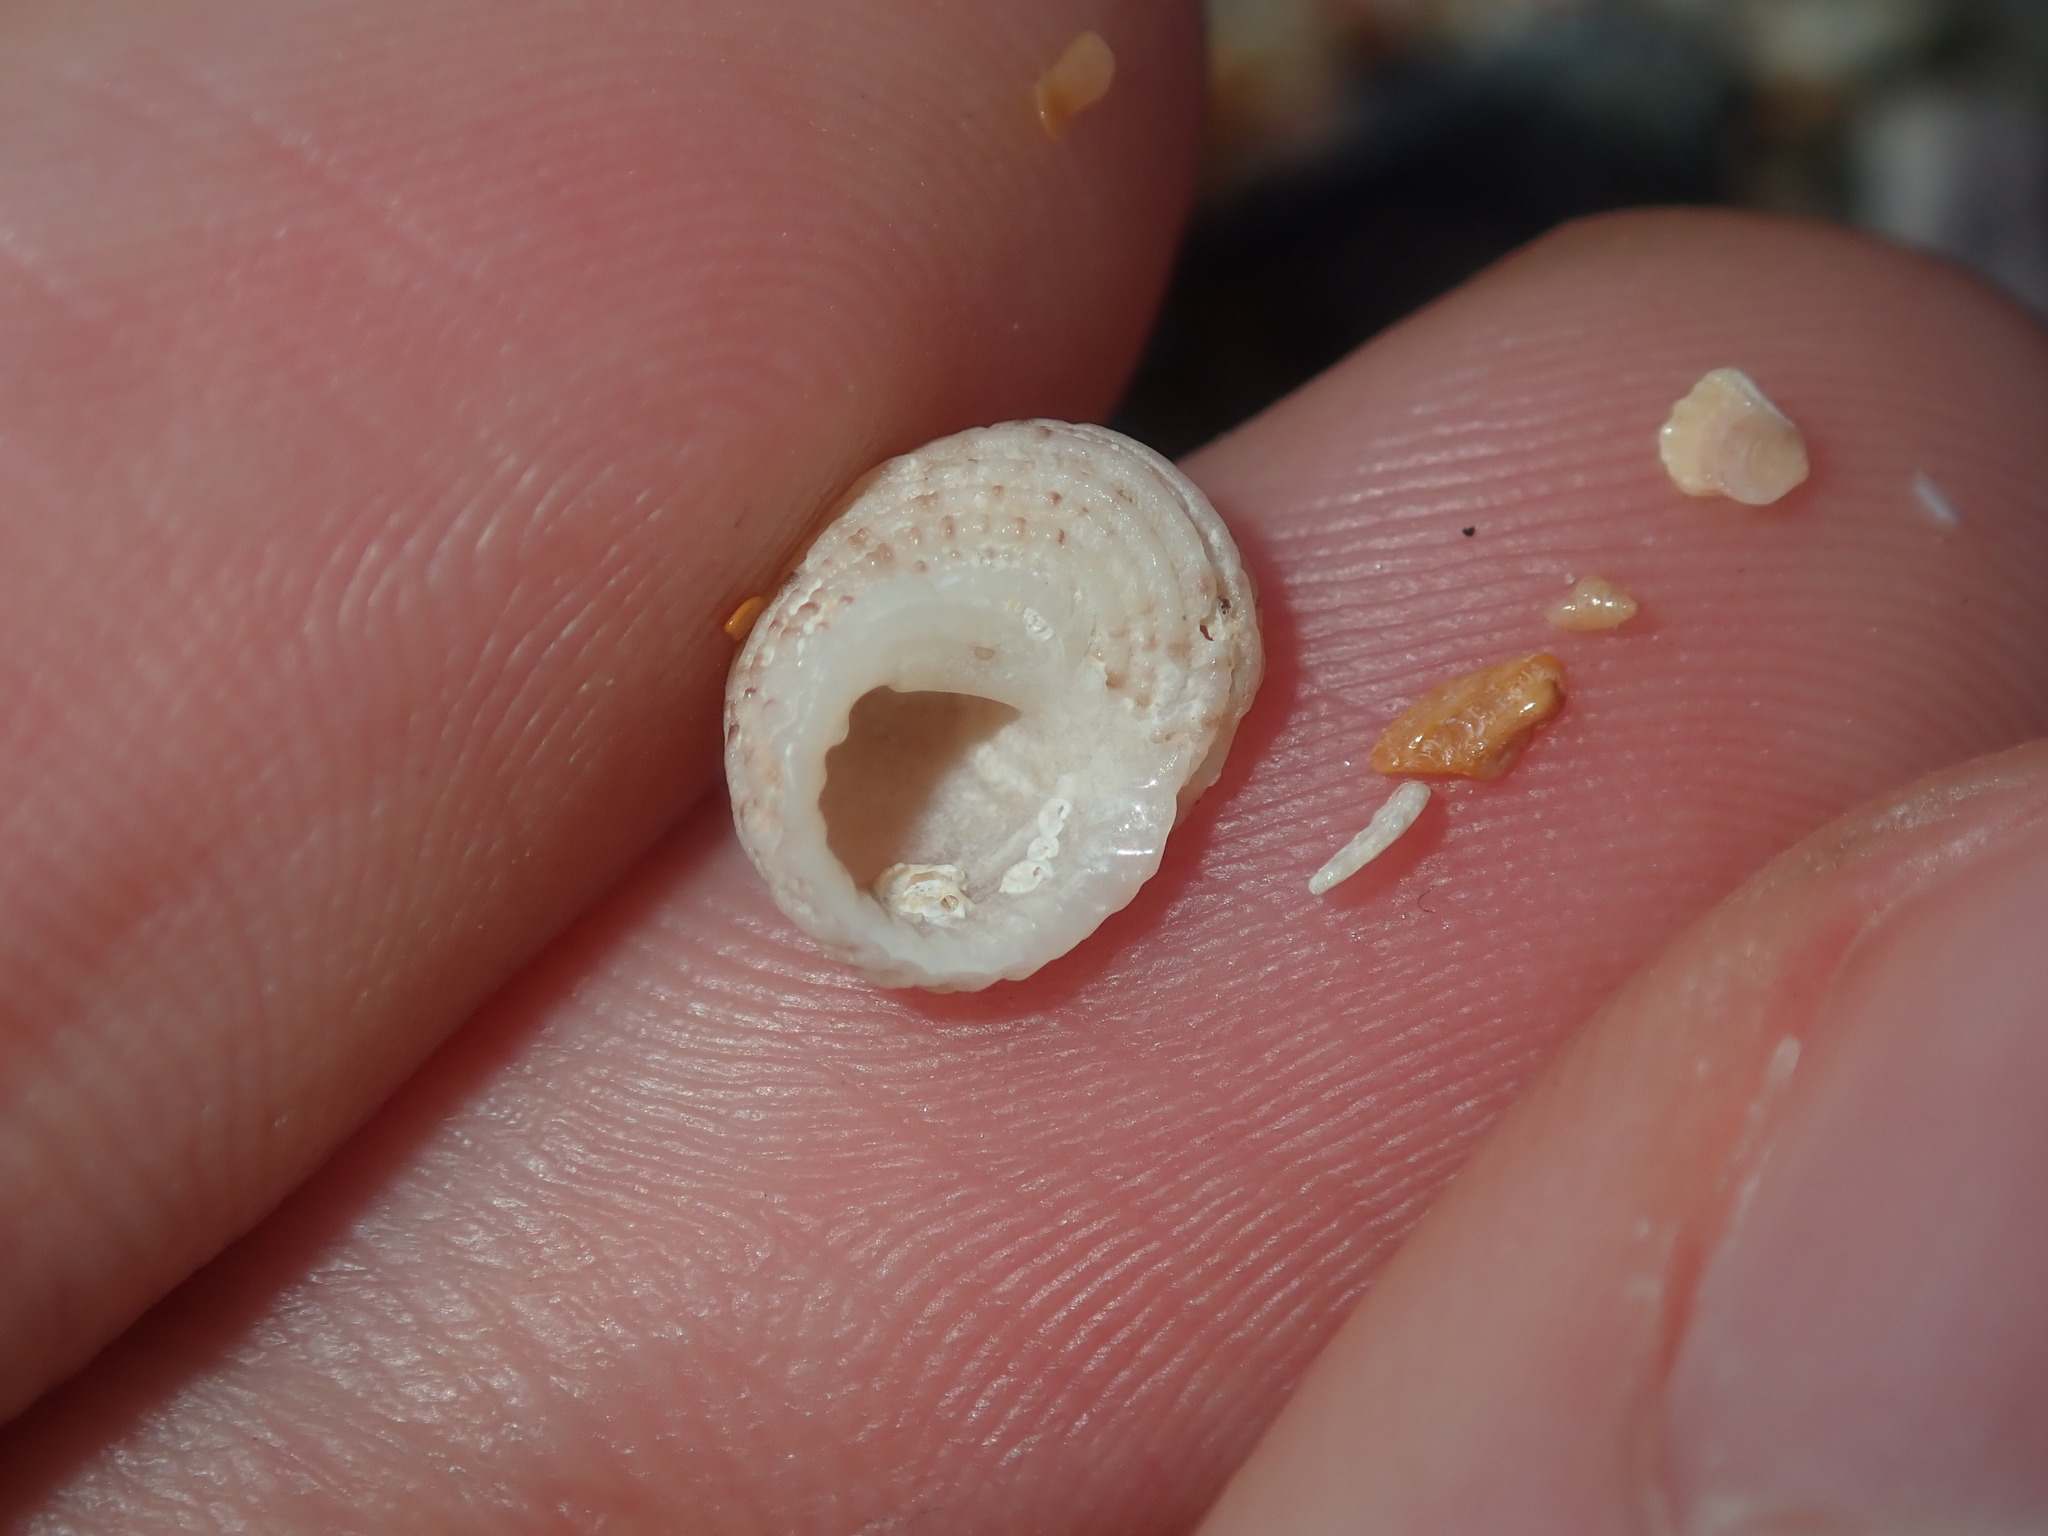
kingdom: Animalia
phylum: Mollusca
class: Gastropoda
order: Seguenziida
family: Chilodontaidae
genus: Herpetopoma
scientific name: Herpetopoma aspersum
